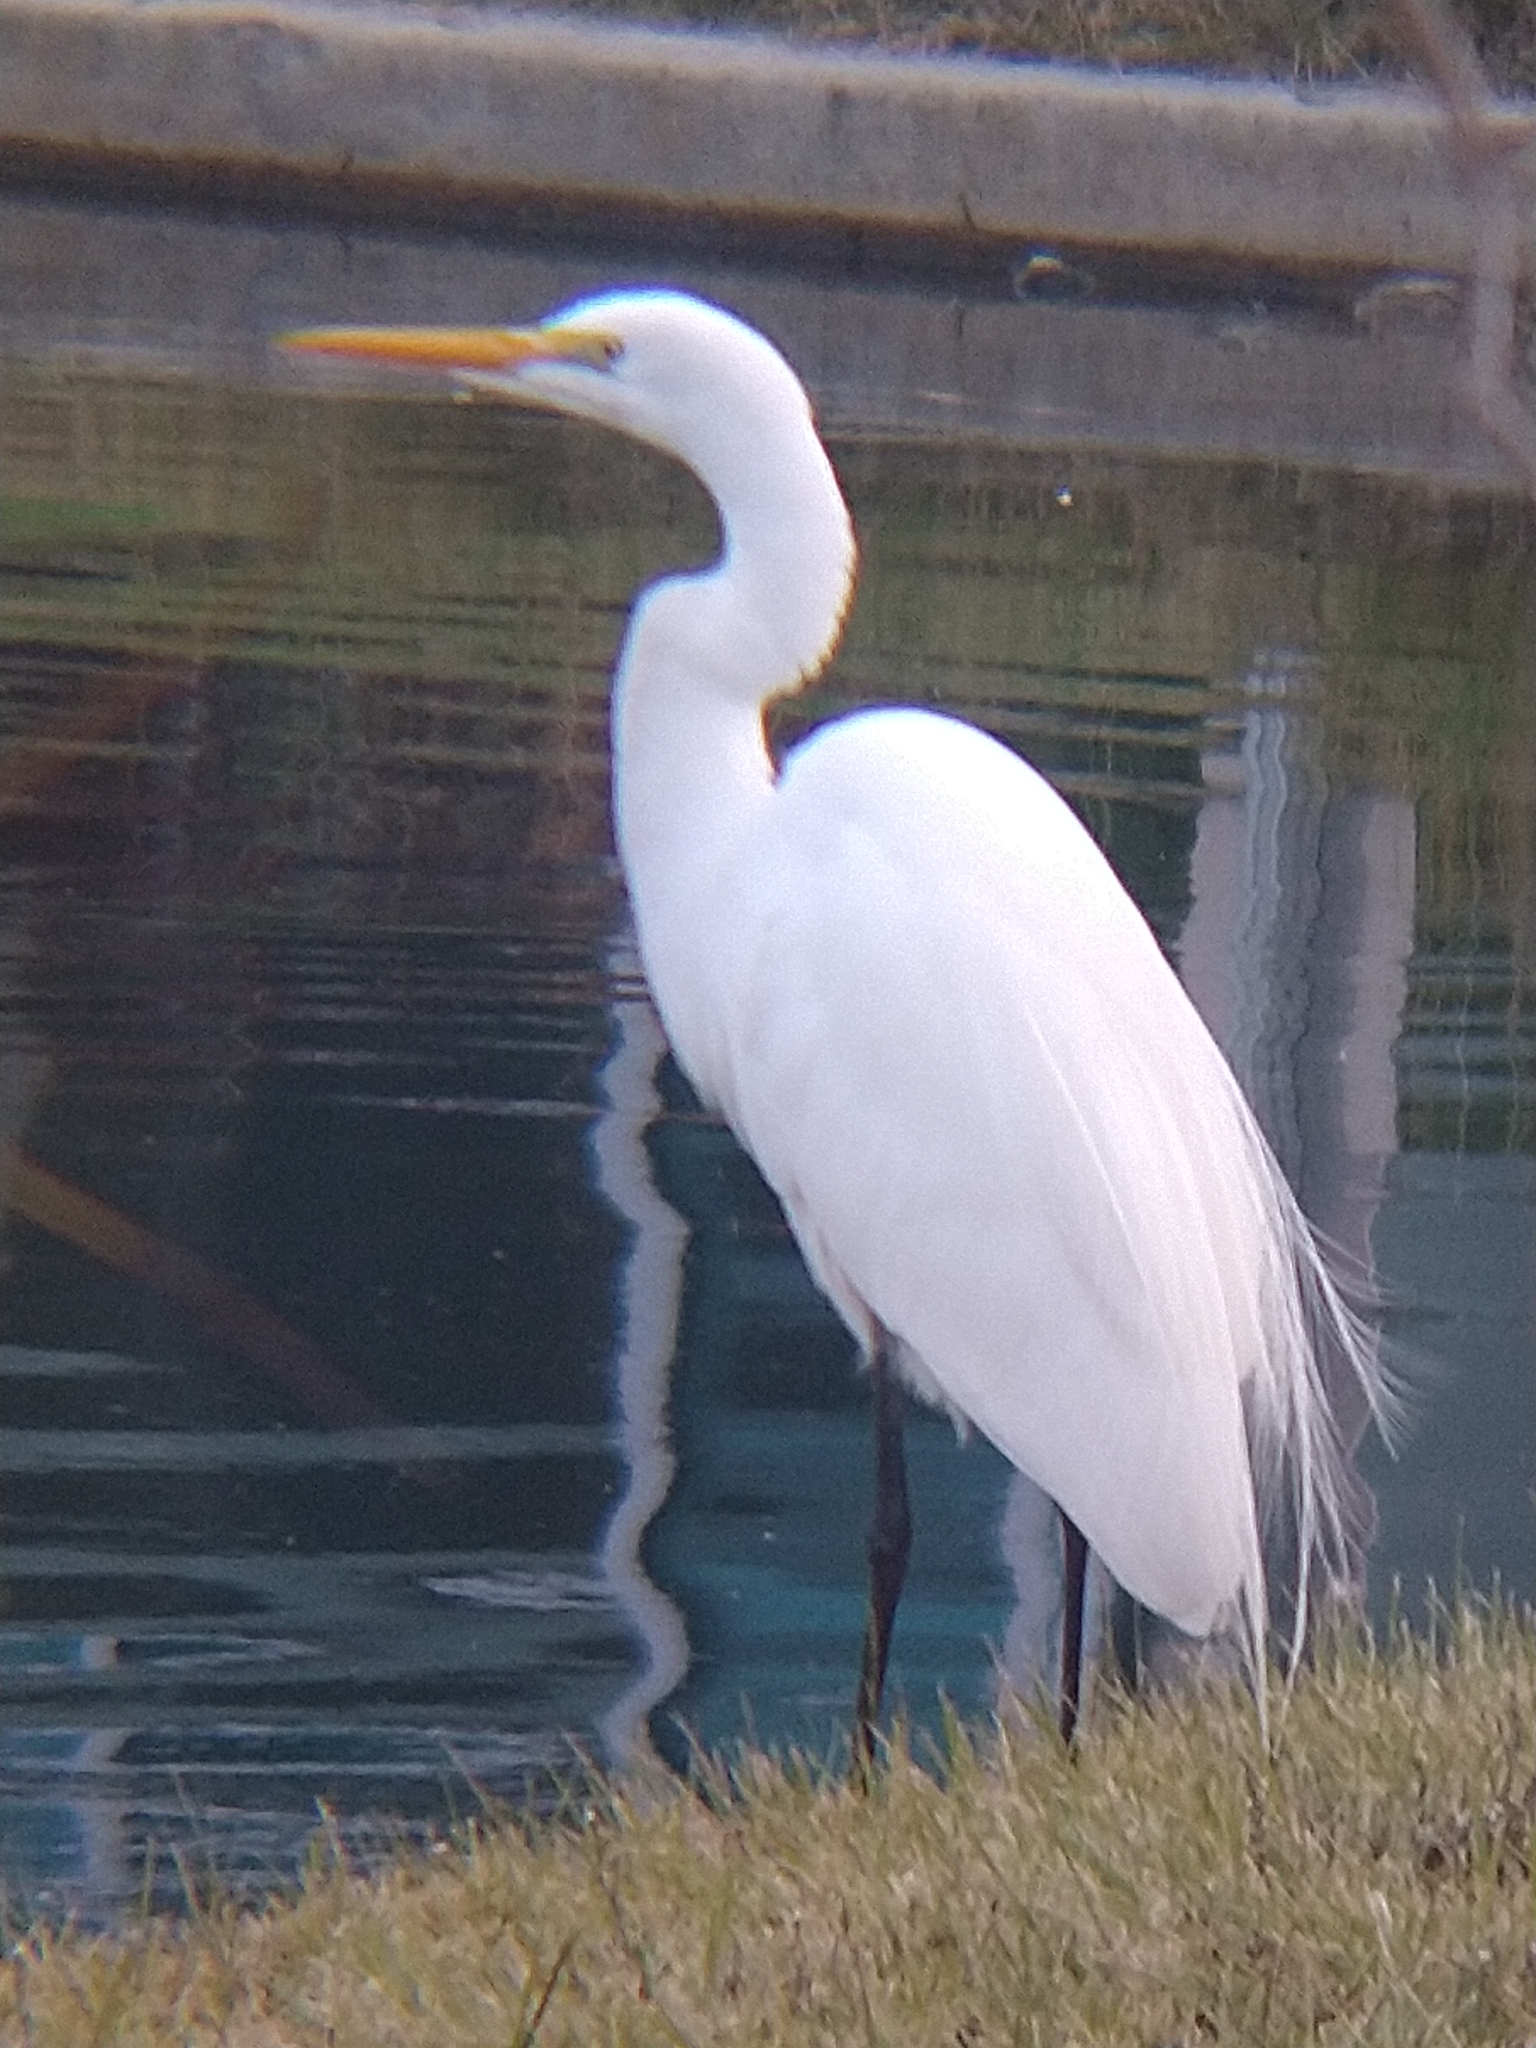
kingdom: Animalia
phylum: Chordata
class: Aves
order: Pelecaniformes
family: Ardeidae
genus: Ardea
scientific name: Ardea alba
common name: Great egret
